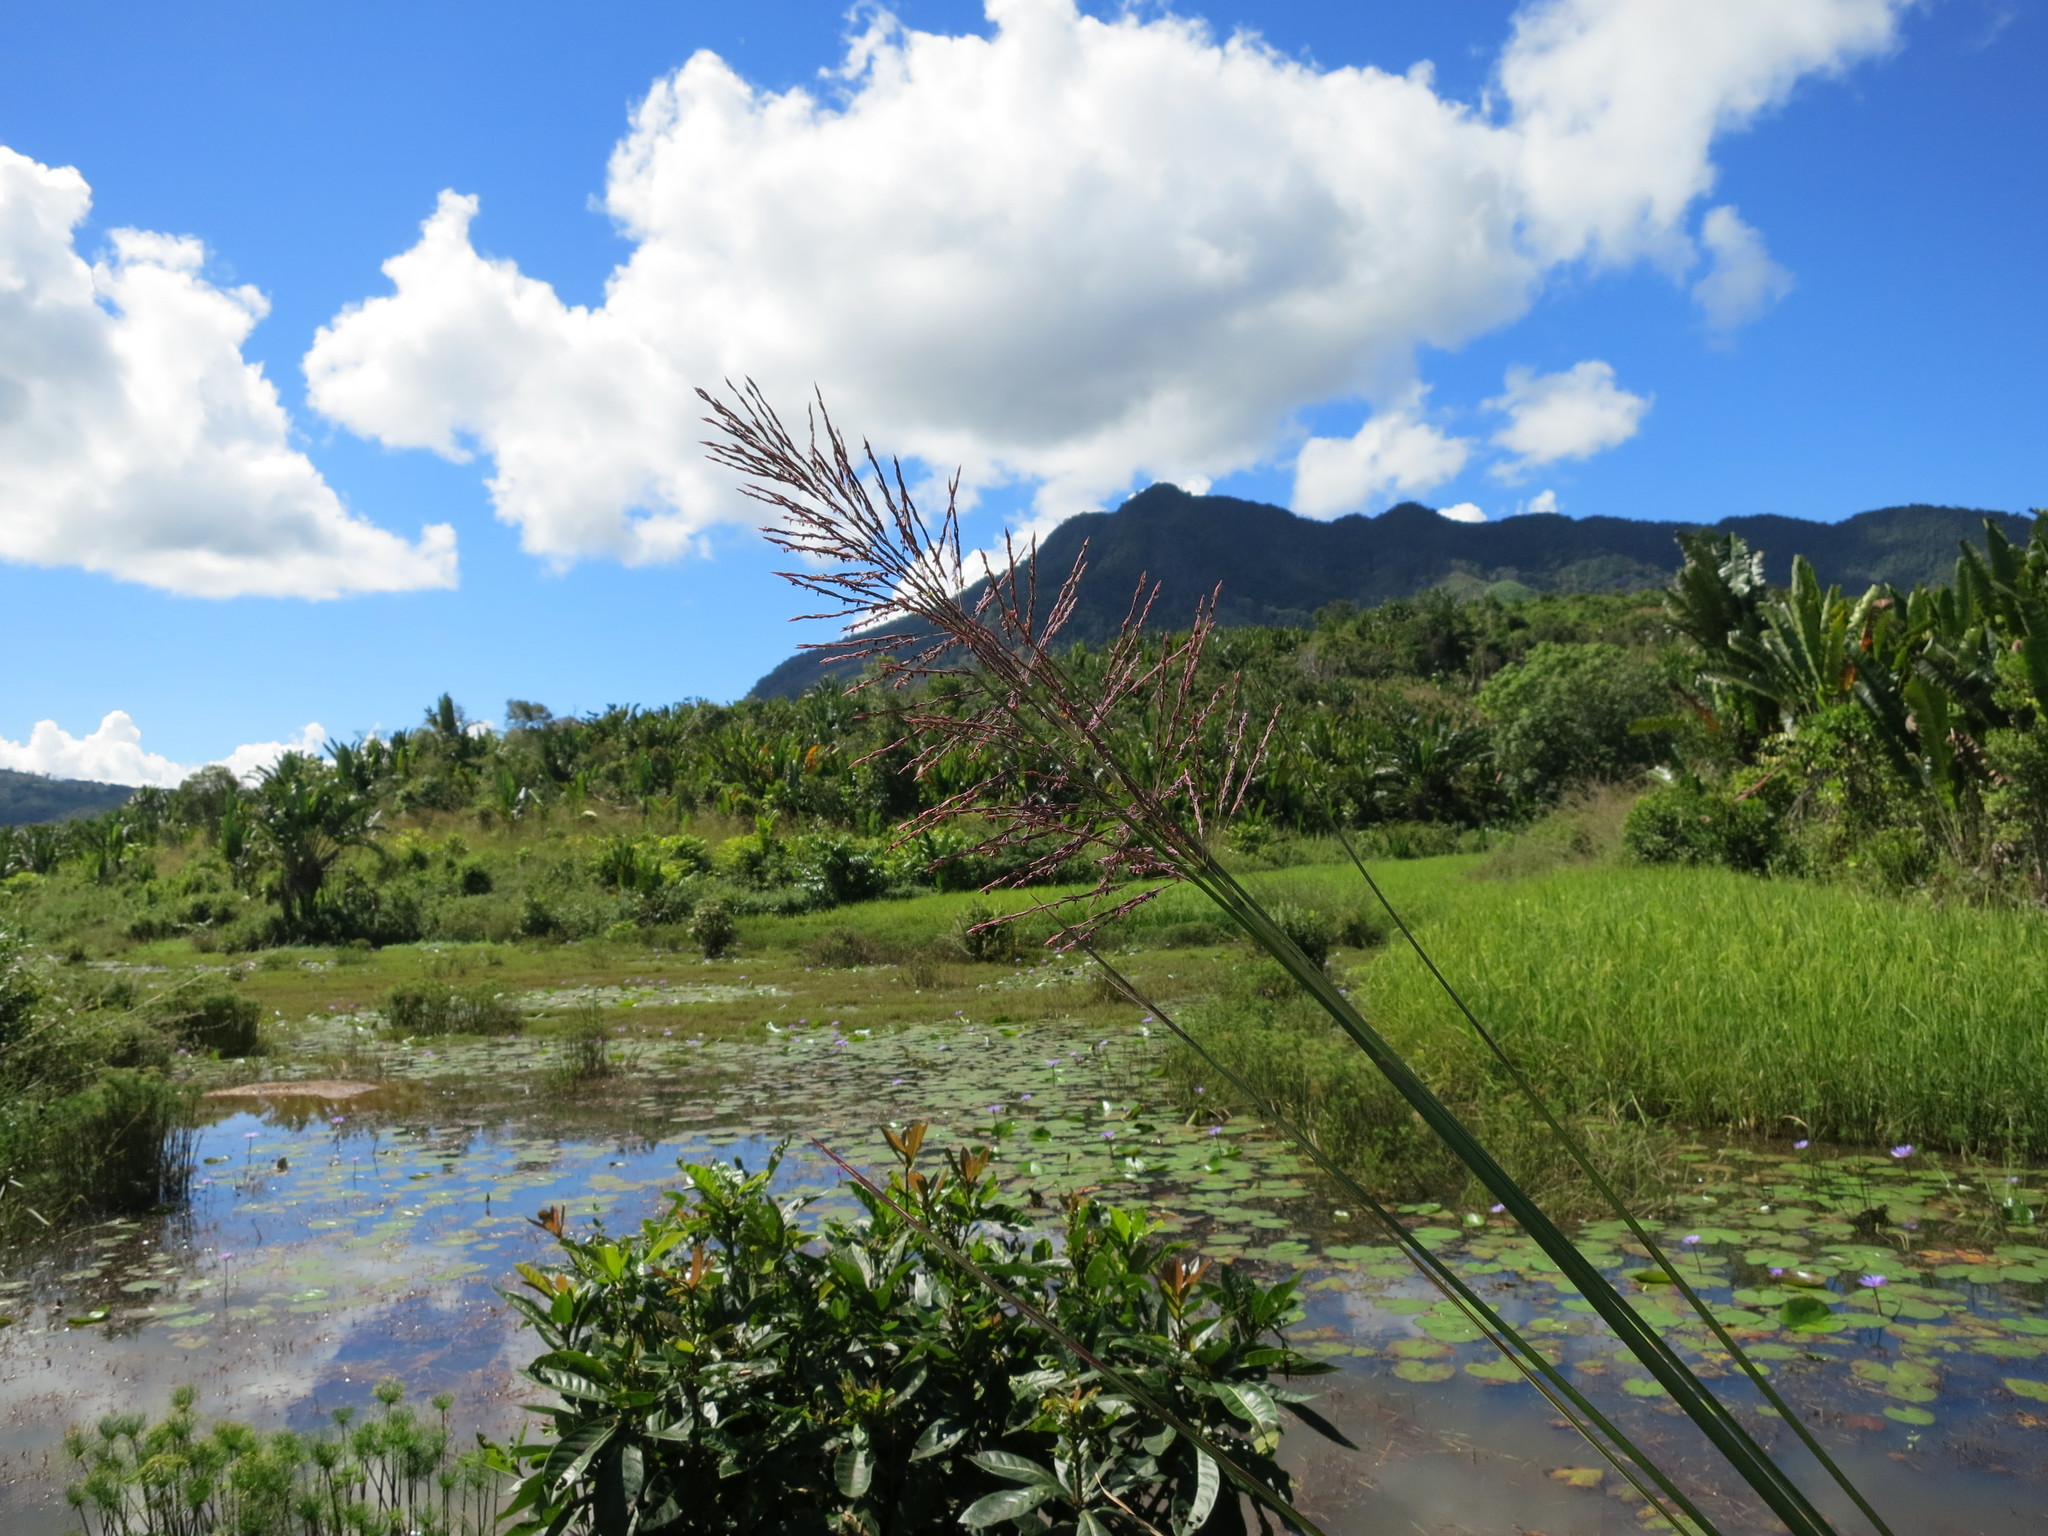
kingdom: Plantae
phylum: Tracheophyta
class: Liliopsida
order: Poales
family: Poaceae
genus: Chrysopogon
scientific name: Chrysopogon zizanioides
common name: False beardgrass
